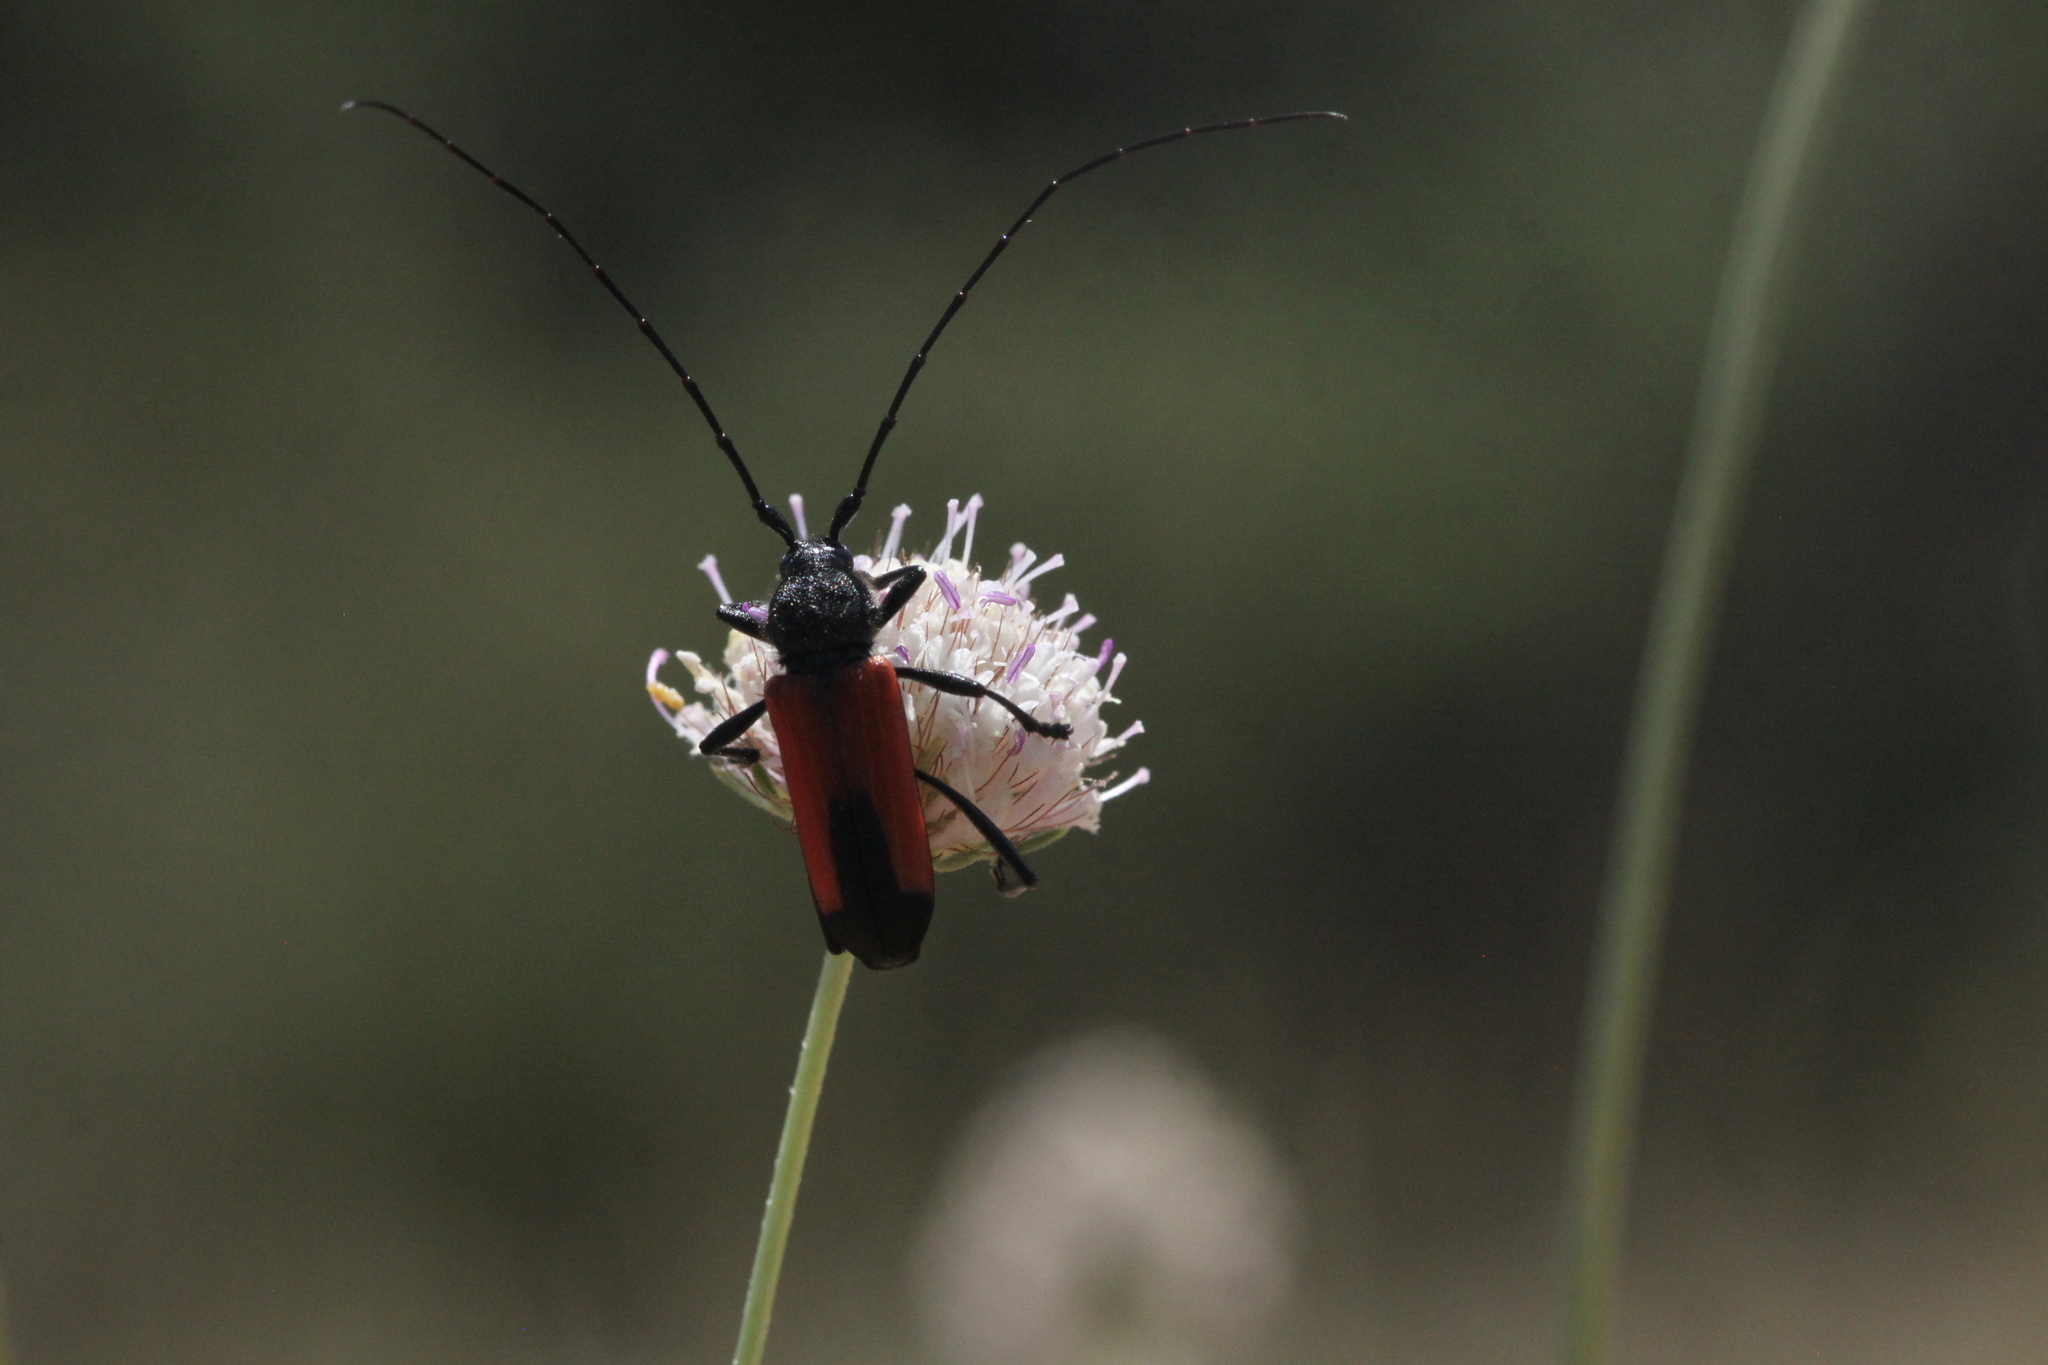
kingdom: Animalia
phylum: Arthropoda
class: Insecta
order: Coleoptera
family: Cerambycidae
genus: Purpuricenus
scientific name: Purpuricenus budensis
